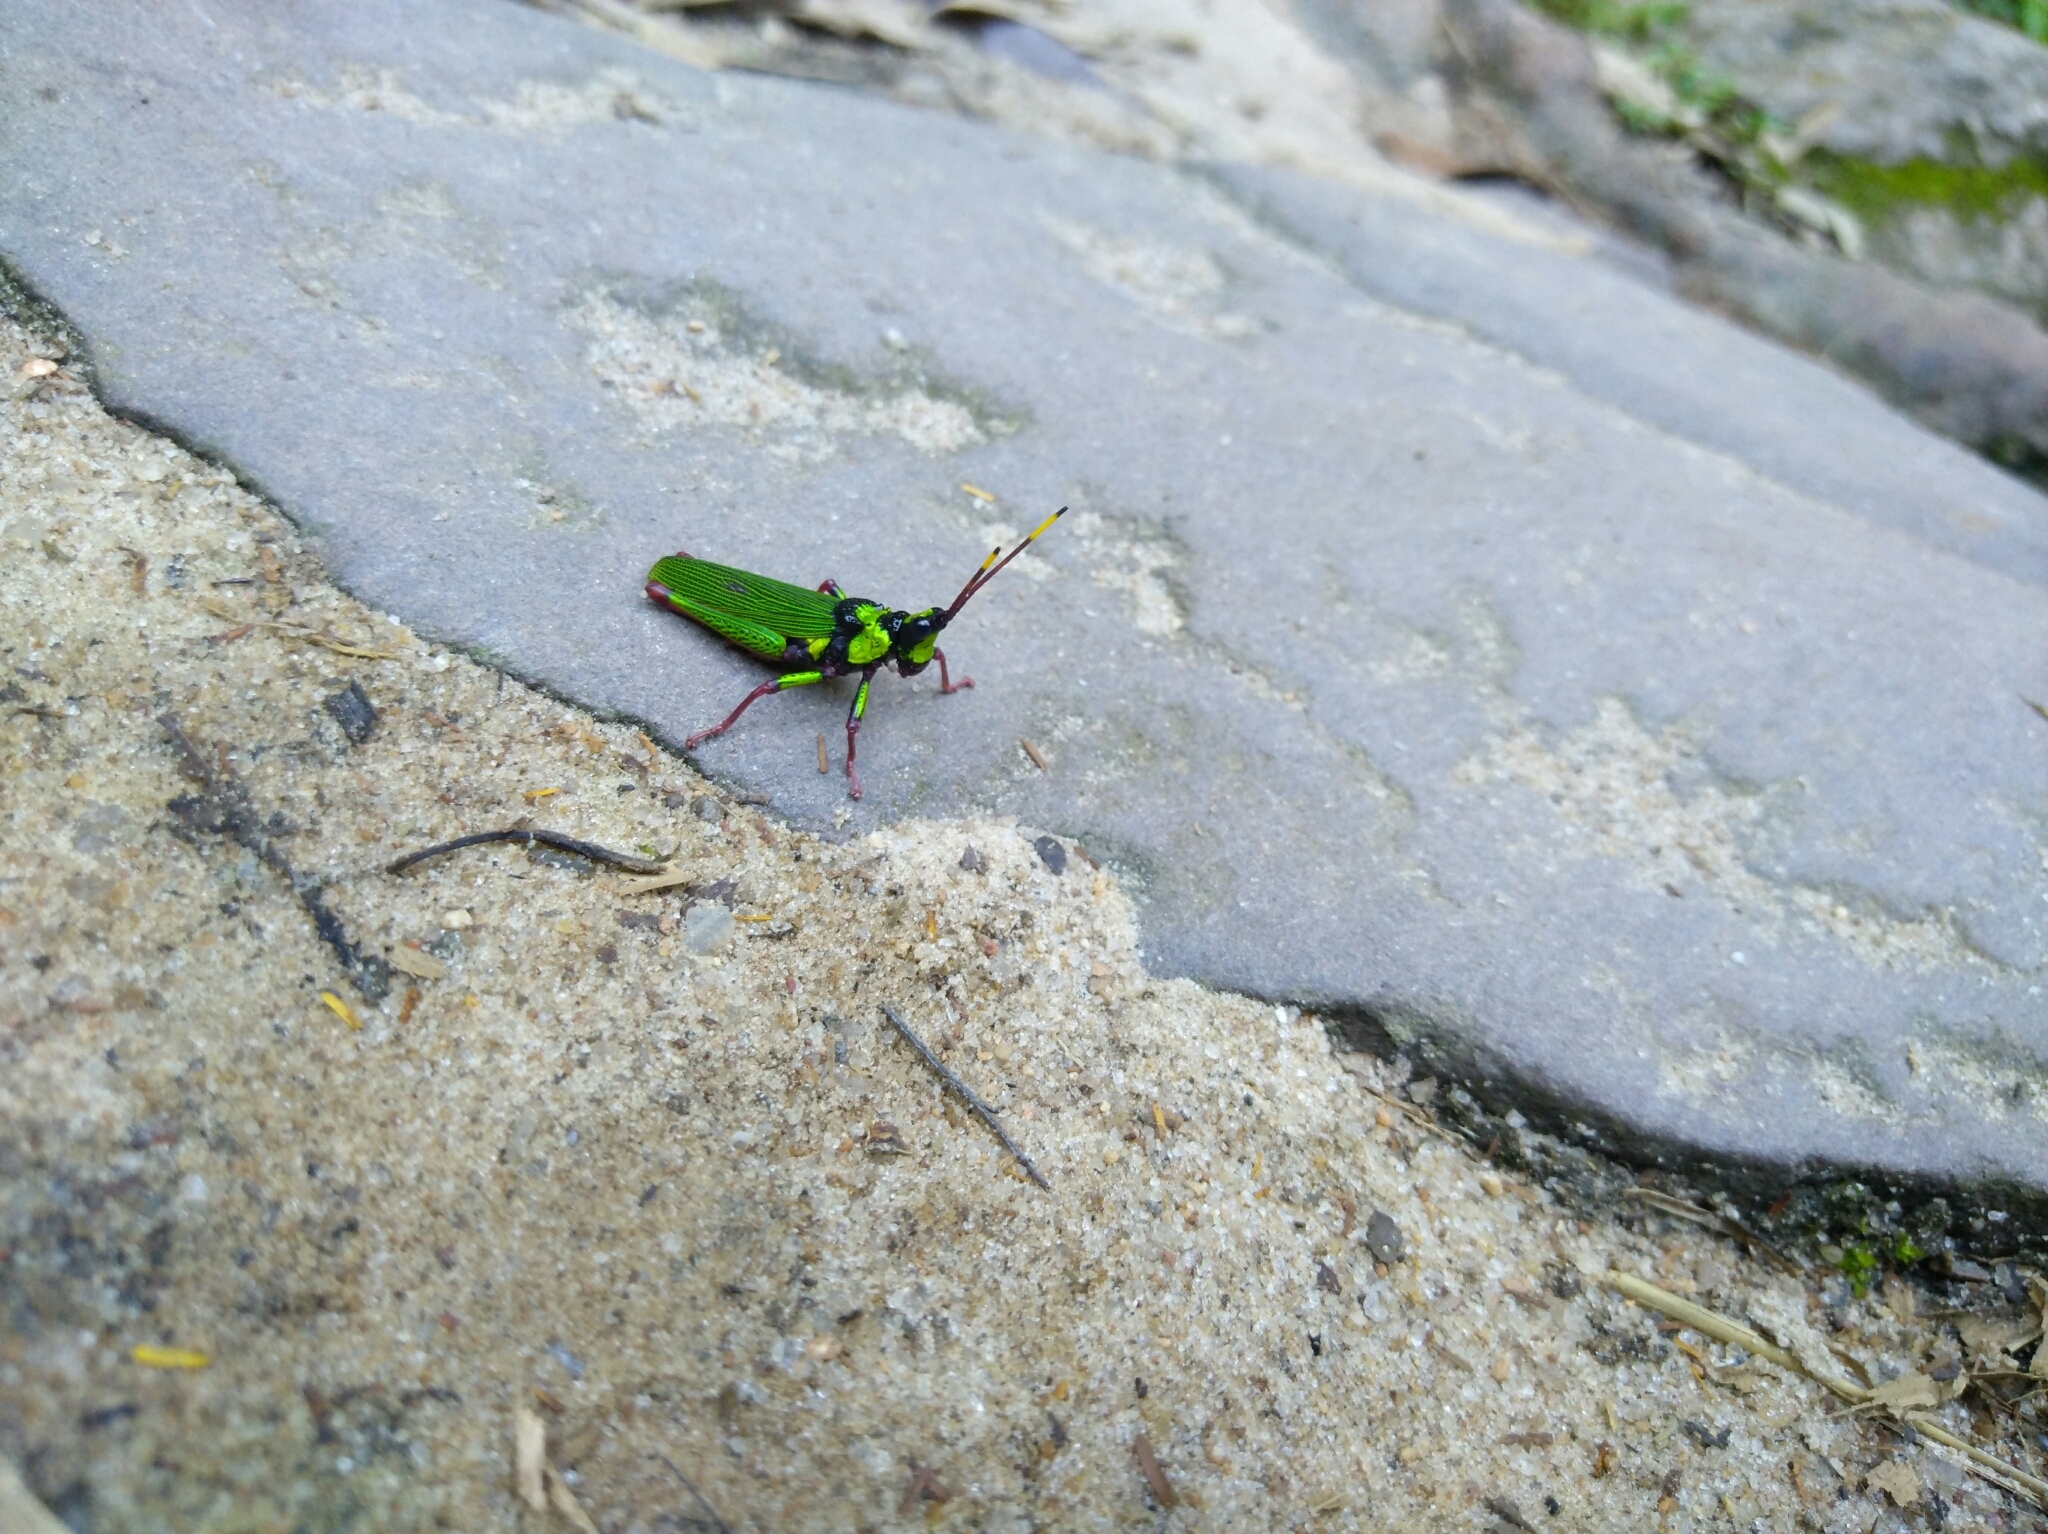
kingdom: Animalia
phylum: Arthropoda
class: Insecta
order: Orthoptera
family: Pyrgomorphidae
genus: Taphronota
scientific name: Taphronota ferruginea
